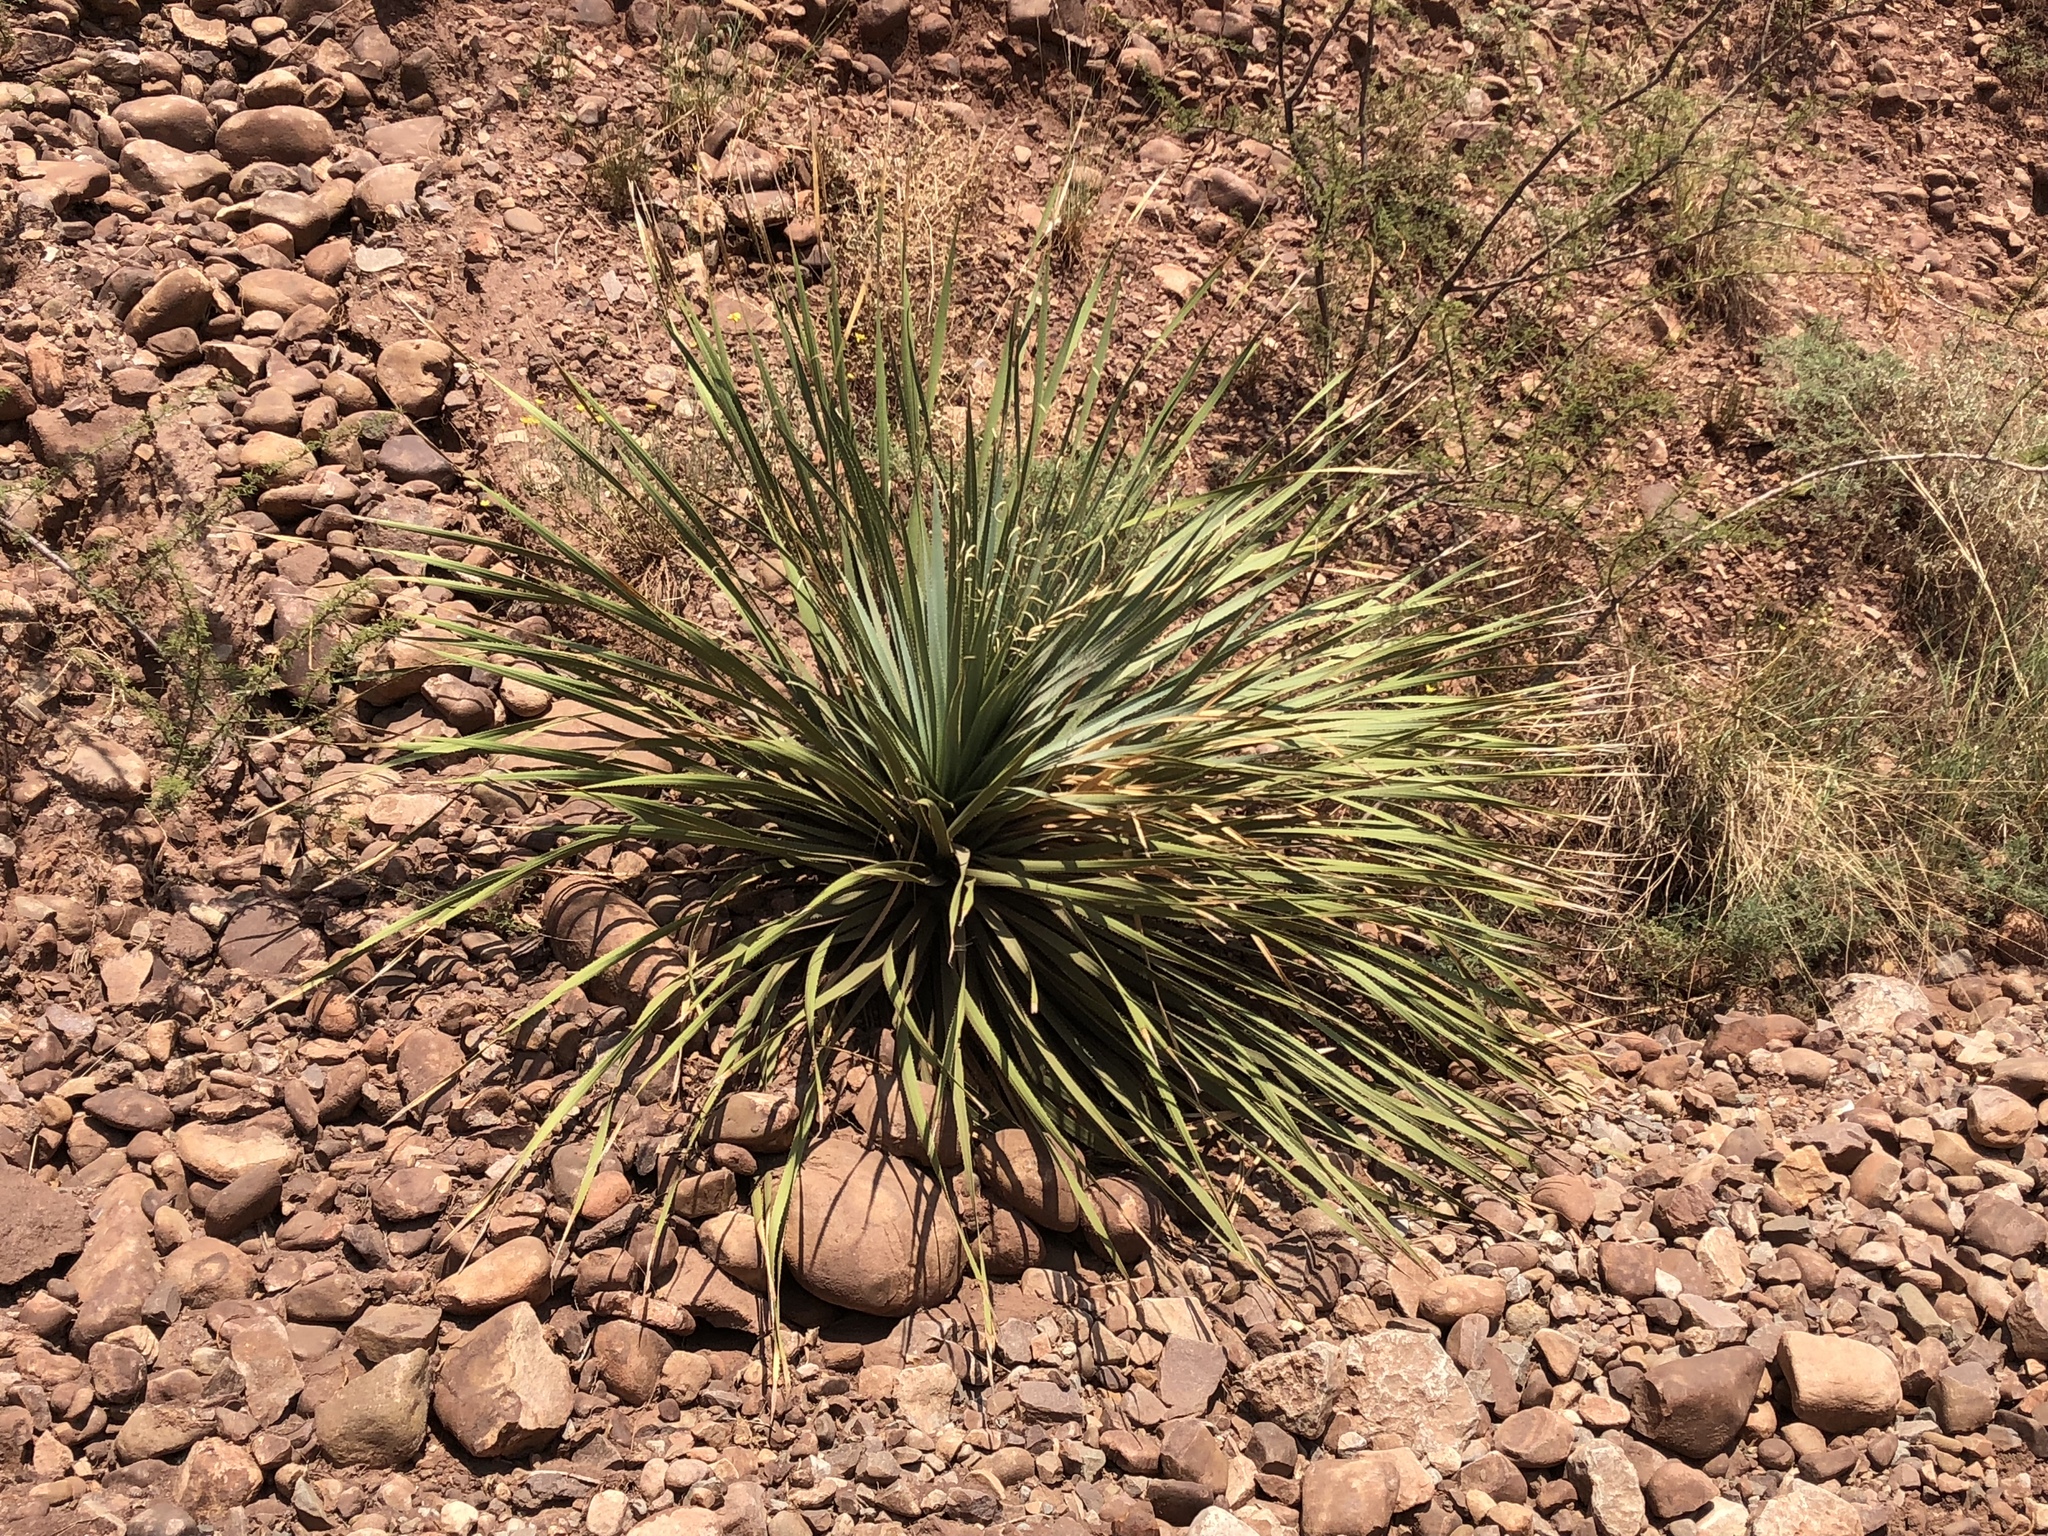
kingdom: Plantae
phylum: Tracheophyta
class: Liliopsida
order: Asparagales
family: Asparagaceae
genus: Dasylirion
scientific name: Dasylirion wheeleri
